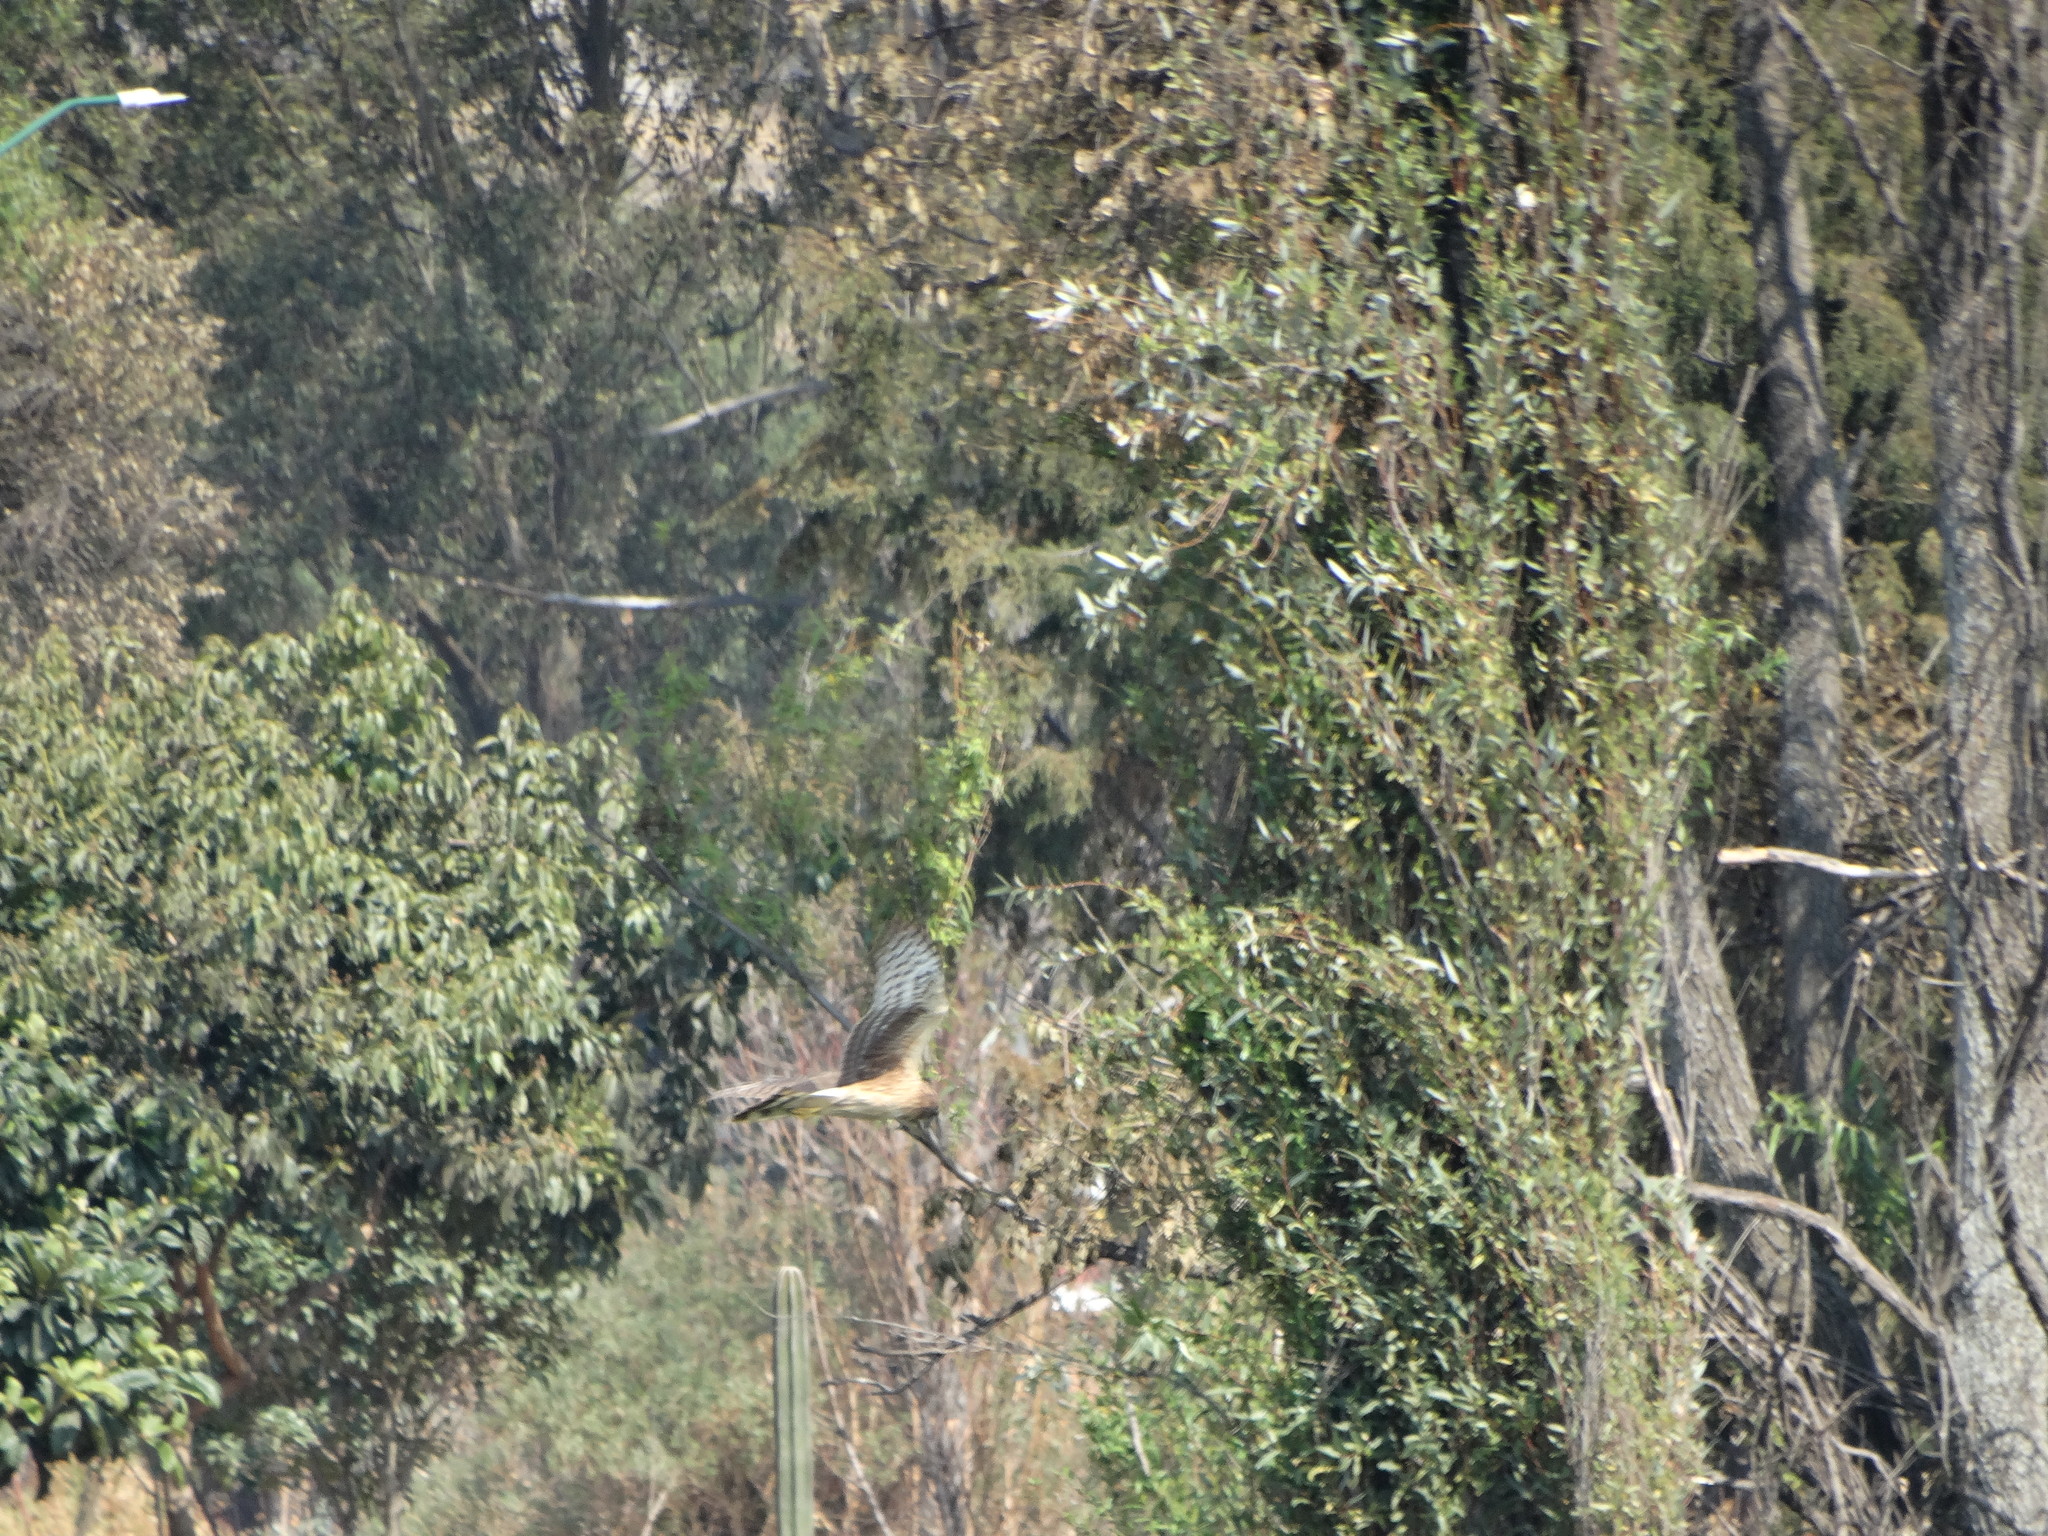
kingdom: Animalia
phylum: Chordata
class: Aves
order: Accipitriformes
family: Accipitridae
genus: Circus
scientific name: Circus cyaneus
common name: Hen harrier
